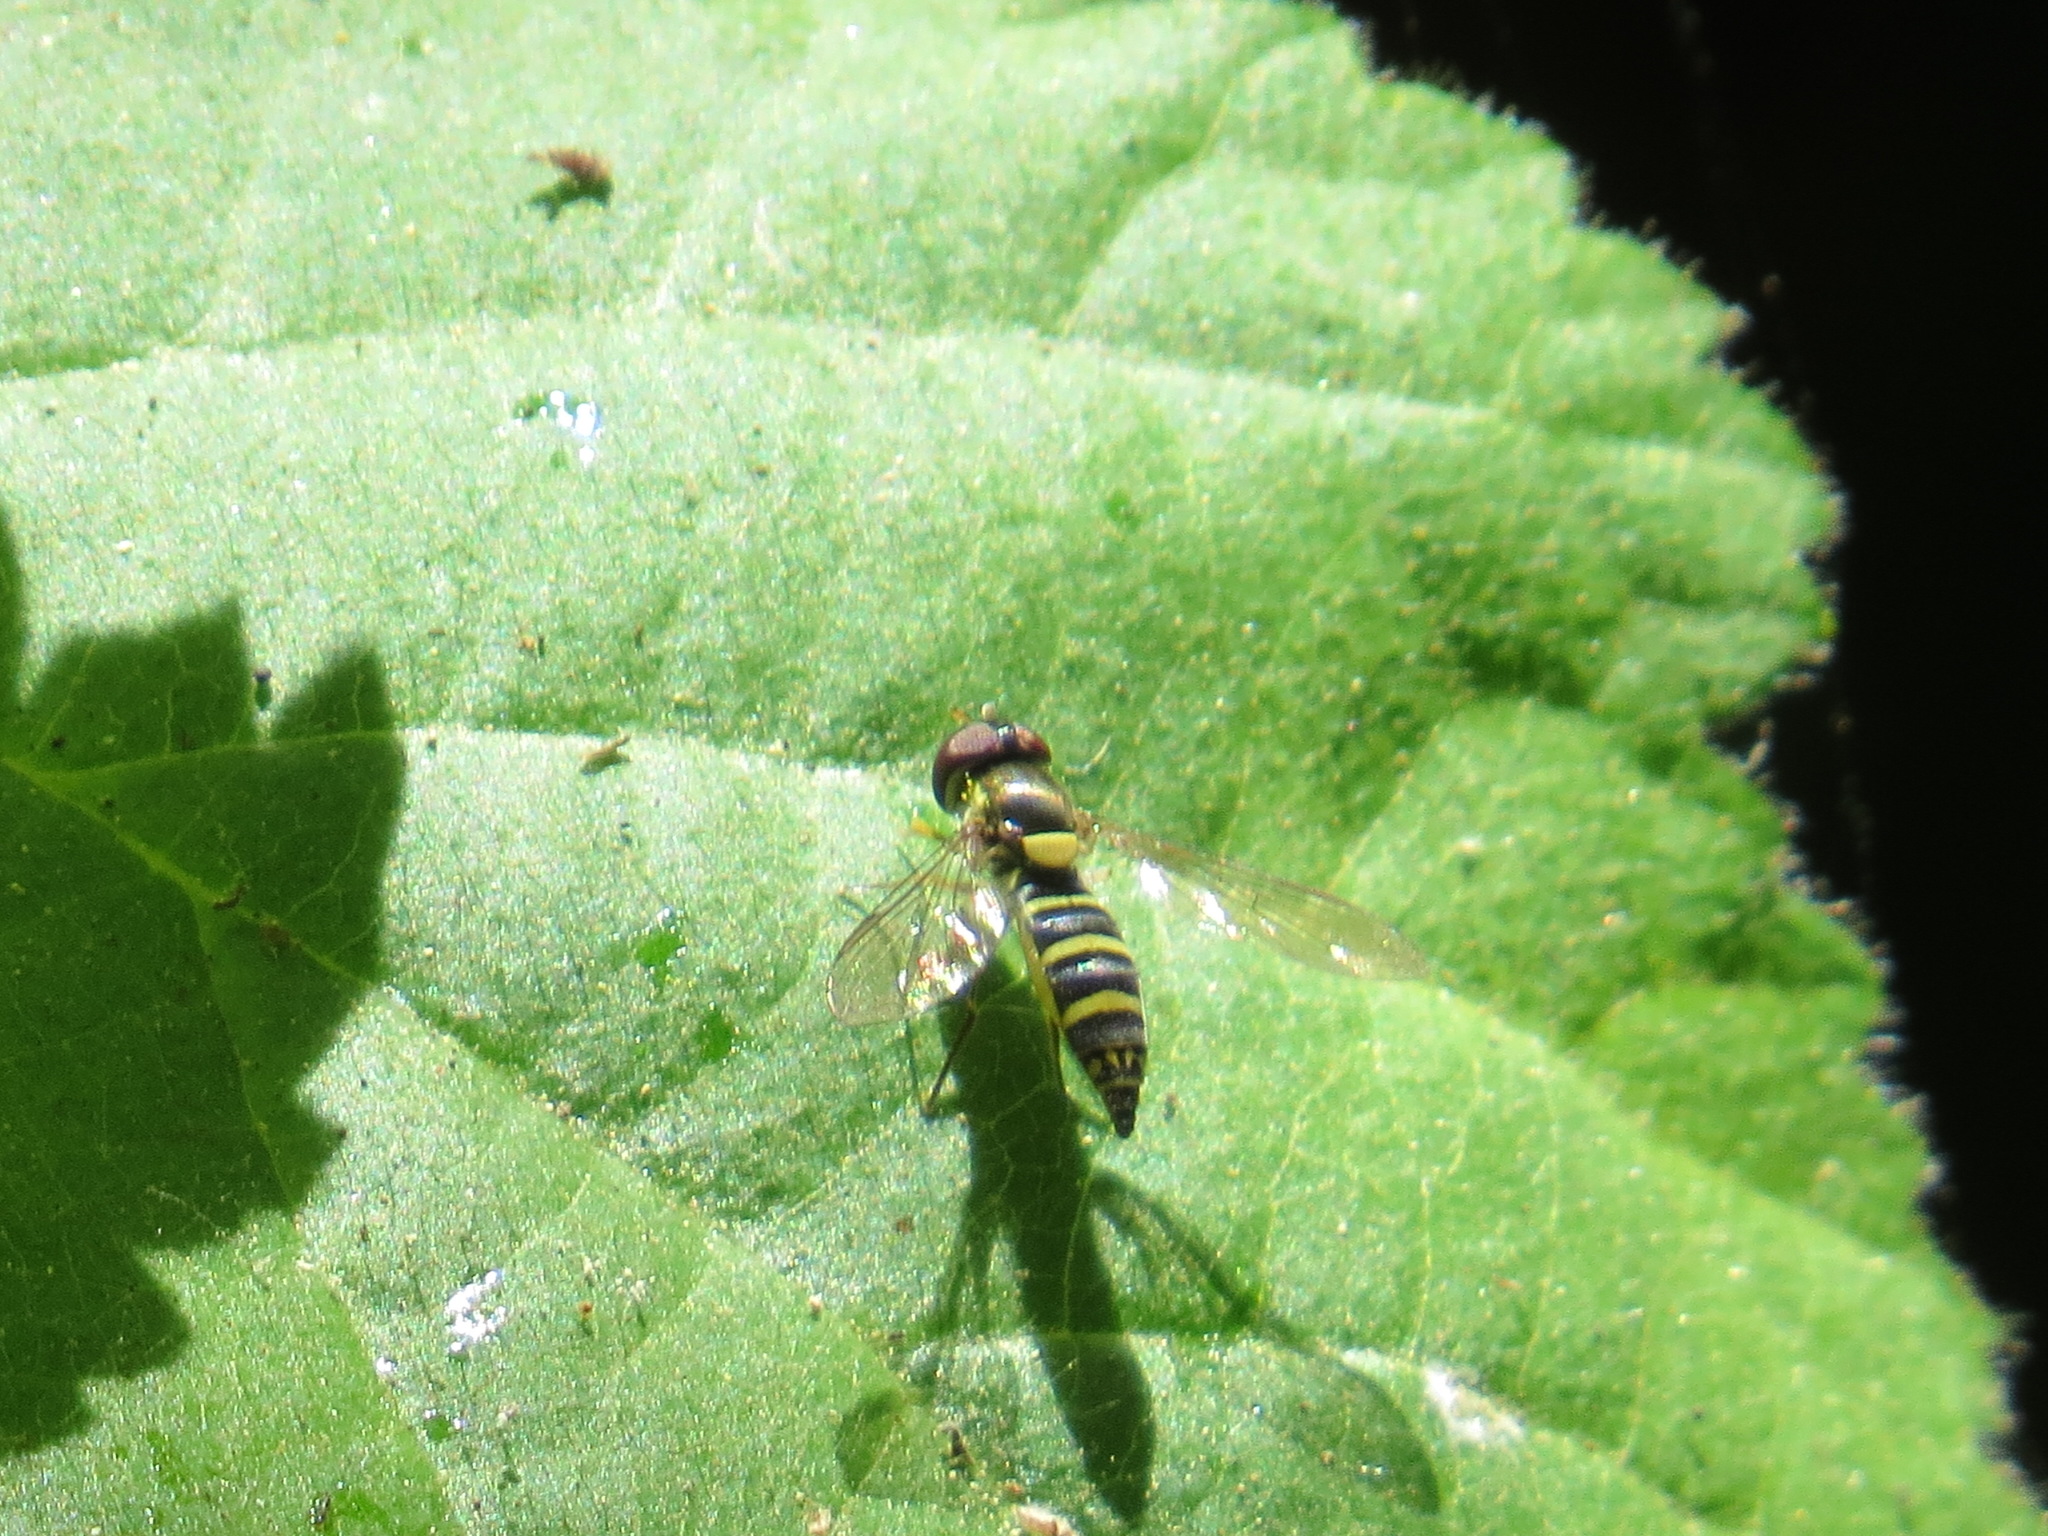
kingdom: Animalia
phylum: Arthropoda
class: Insecta
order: Diptera
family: Syrphidae
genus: Fazia
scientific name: Fazia micrura
